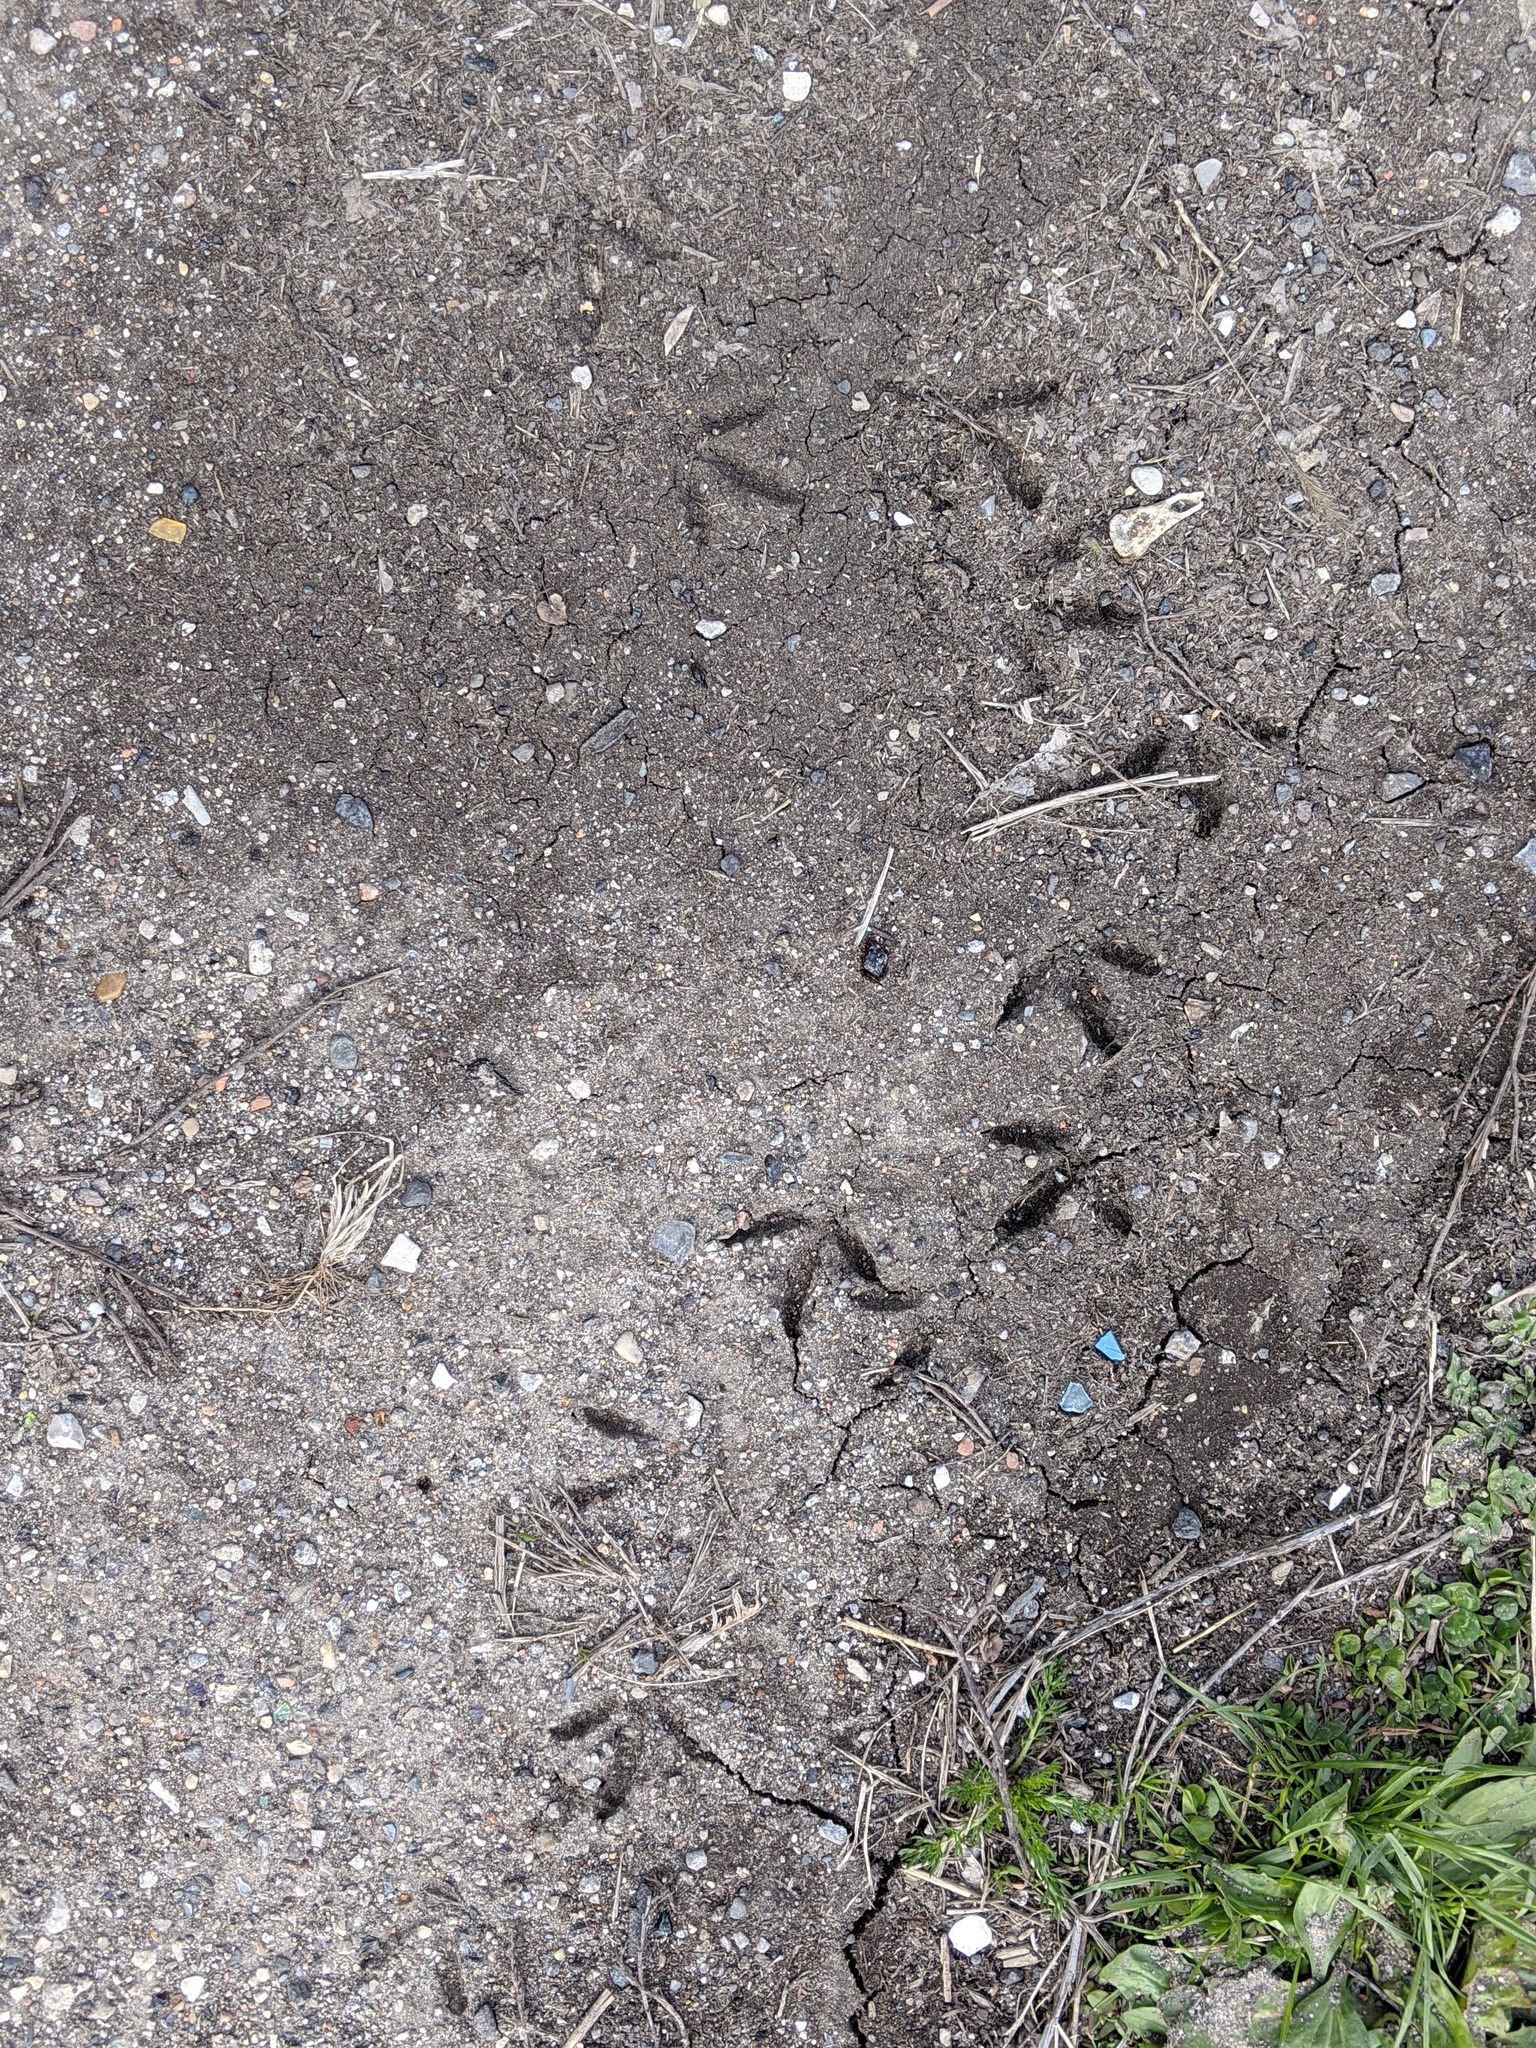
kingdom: Animalia
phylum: Chordata
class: Aves
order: Columbiformes
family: Columbidae
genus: Columba
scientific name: Columba livia
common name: Rock pigeon
